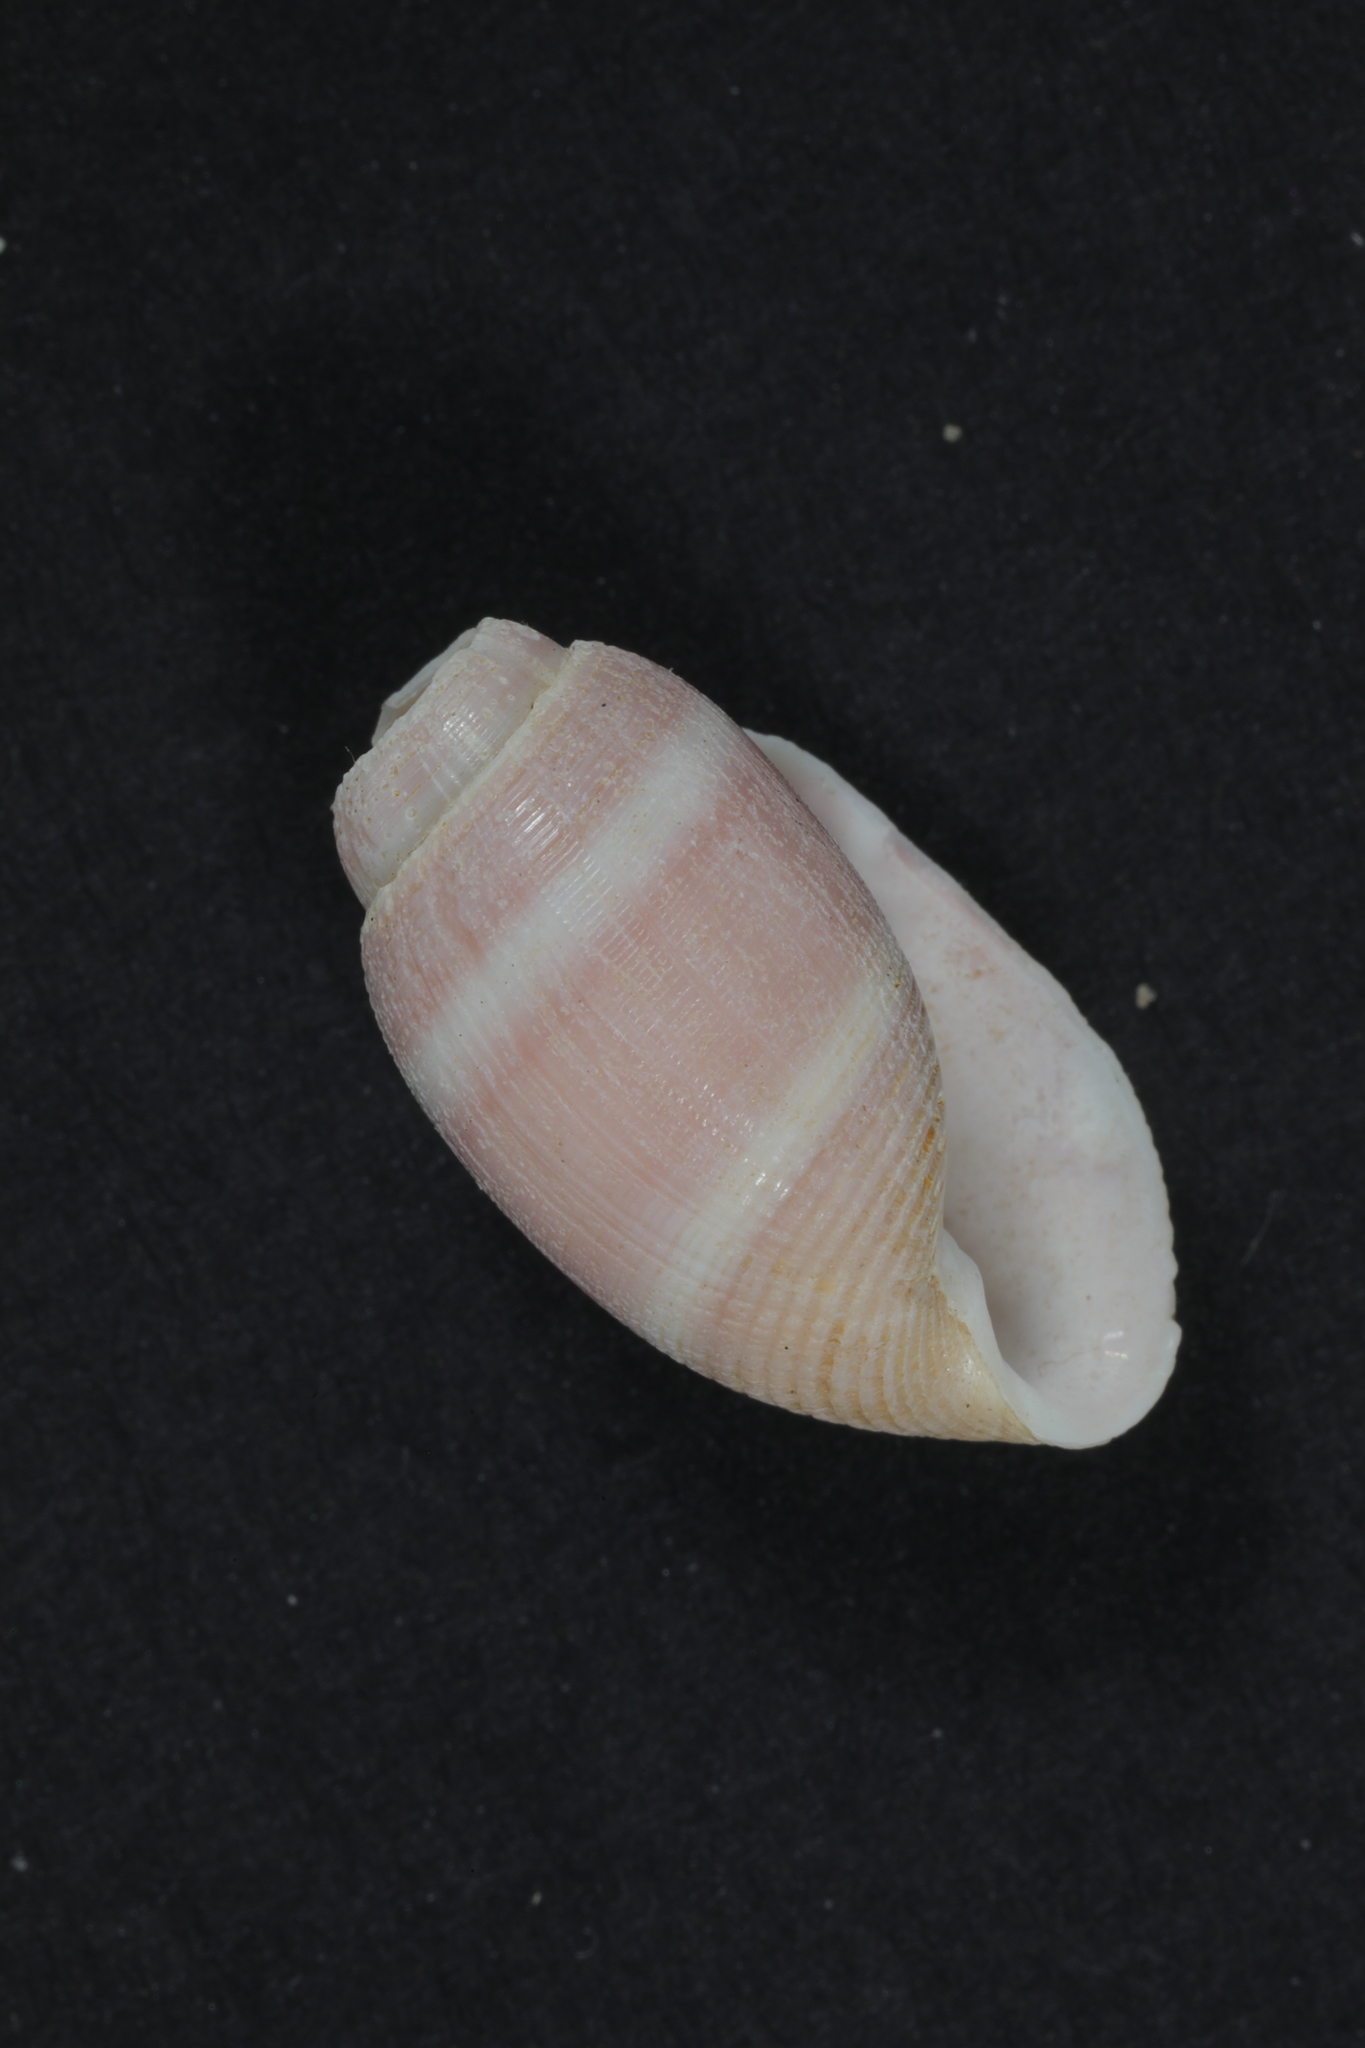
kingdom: Animalia
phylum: Mollusca
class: Gastropoda
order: Cephalaspidea
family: Acteonidae
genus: Acteon
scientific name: Acteon tornatilis
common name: European acteon
